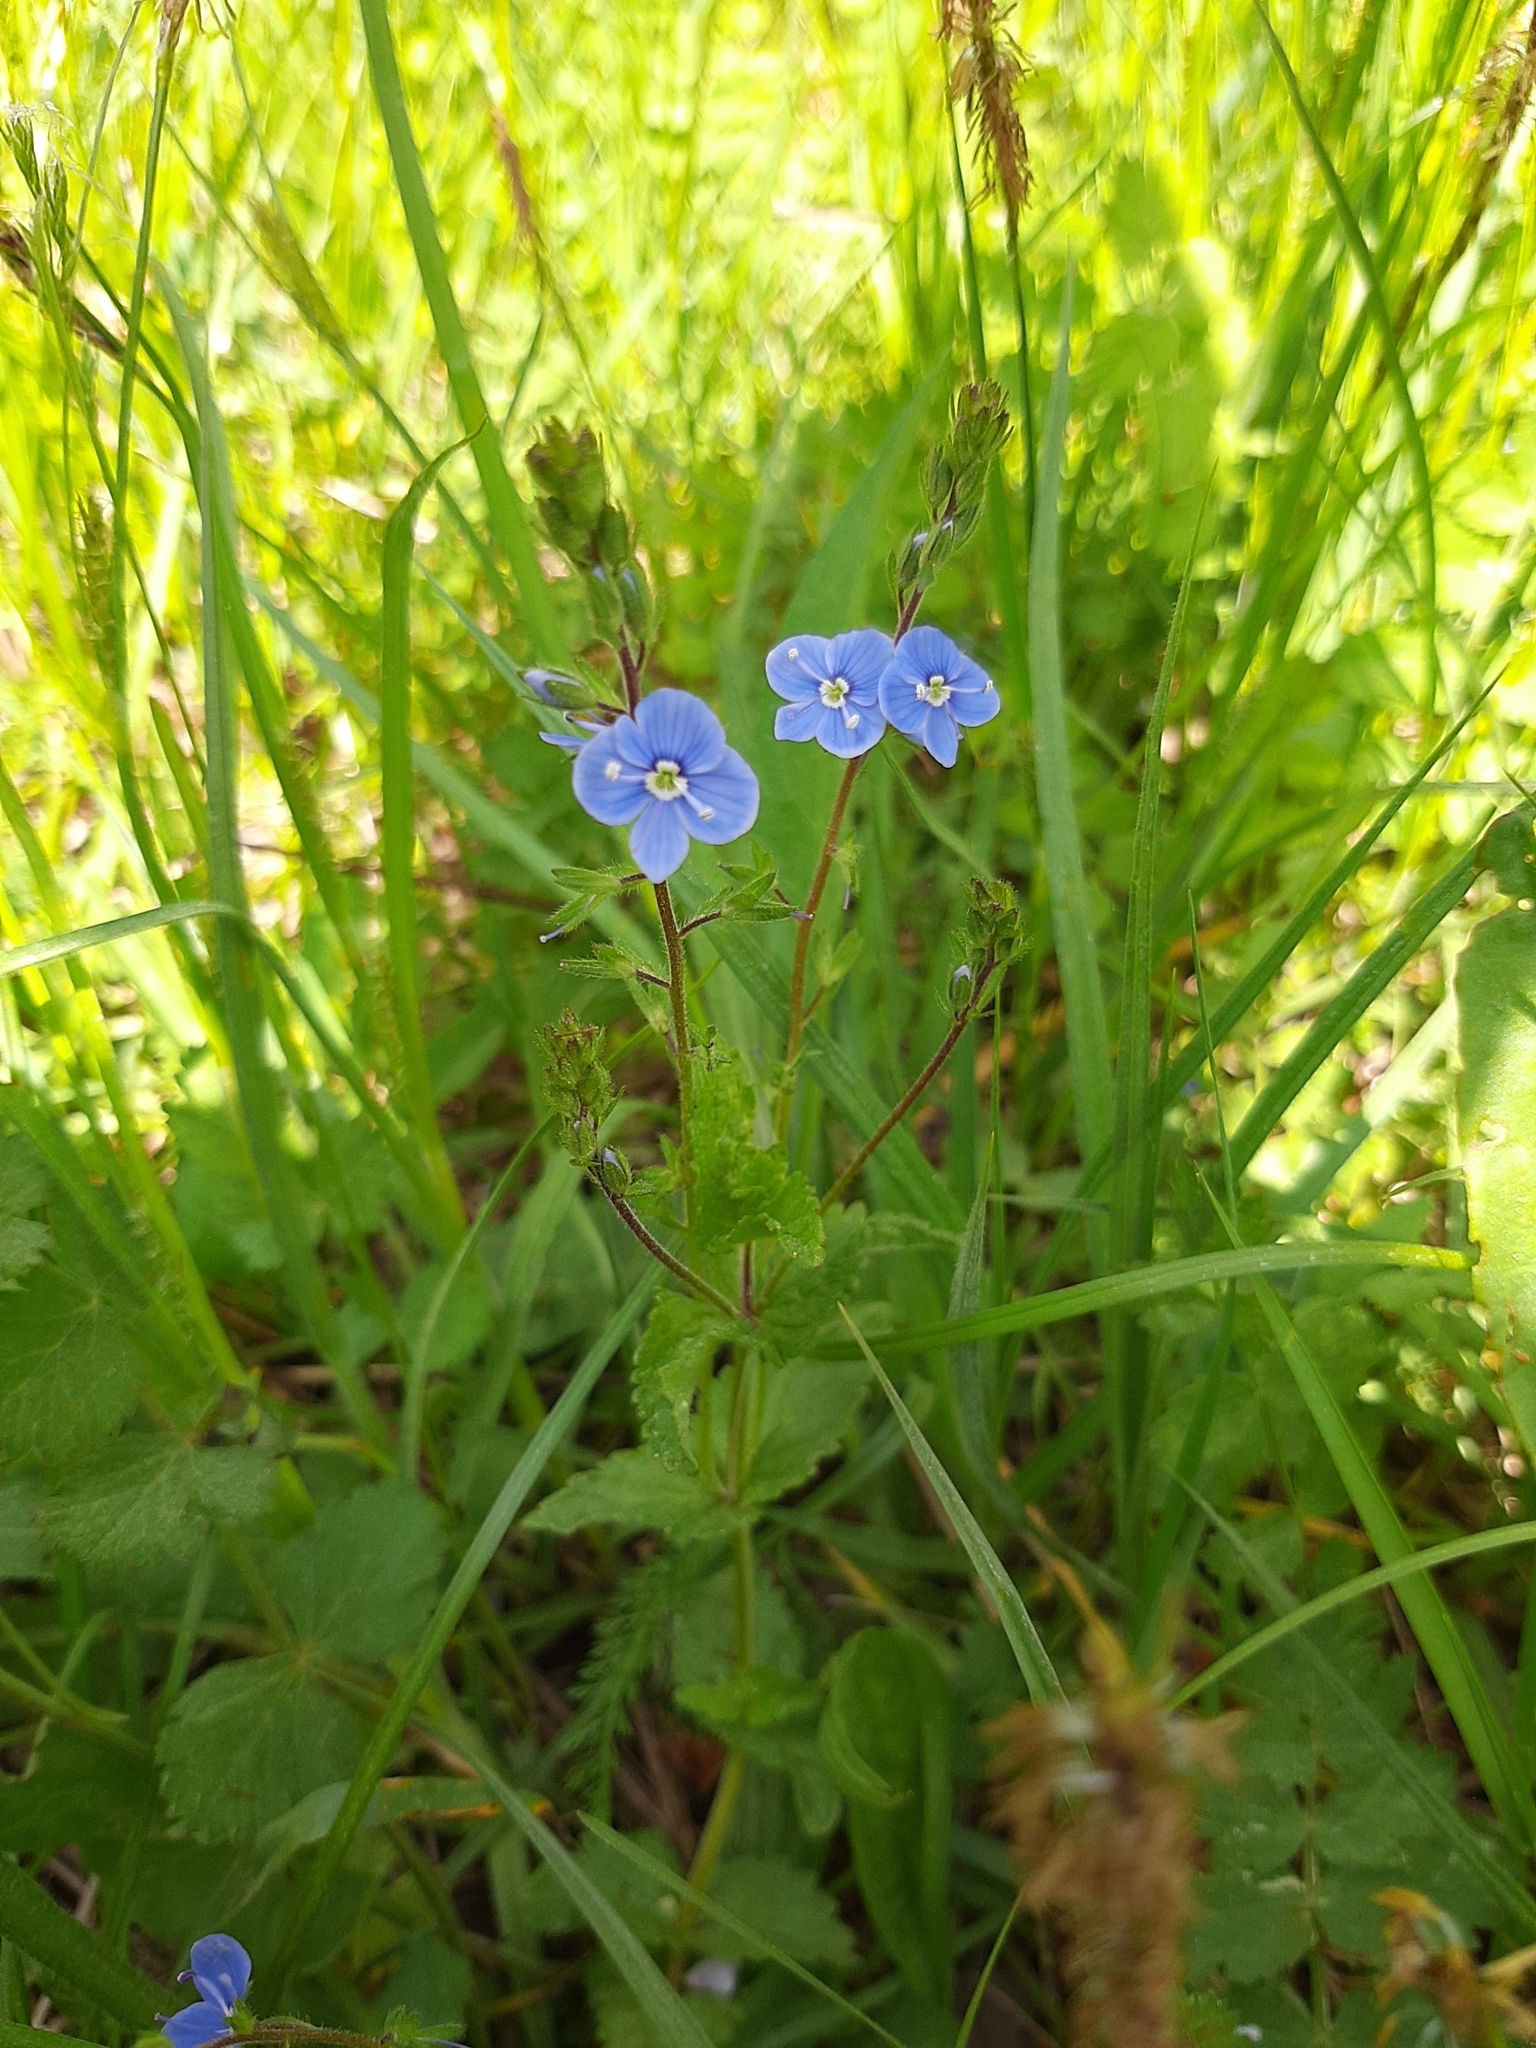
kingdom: Plantae
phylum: Tracheophyta
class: Magnoliopsida
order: Lamiales
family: Plantaginaceae
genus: Veronica
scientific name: Veronica chamaedrys
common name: Germander speedwell
